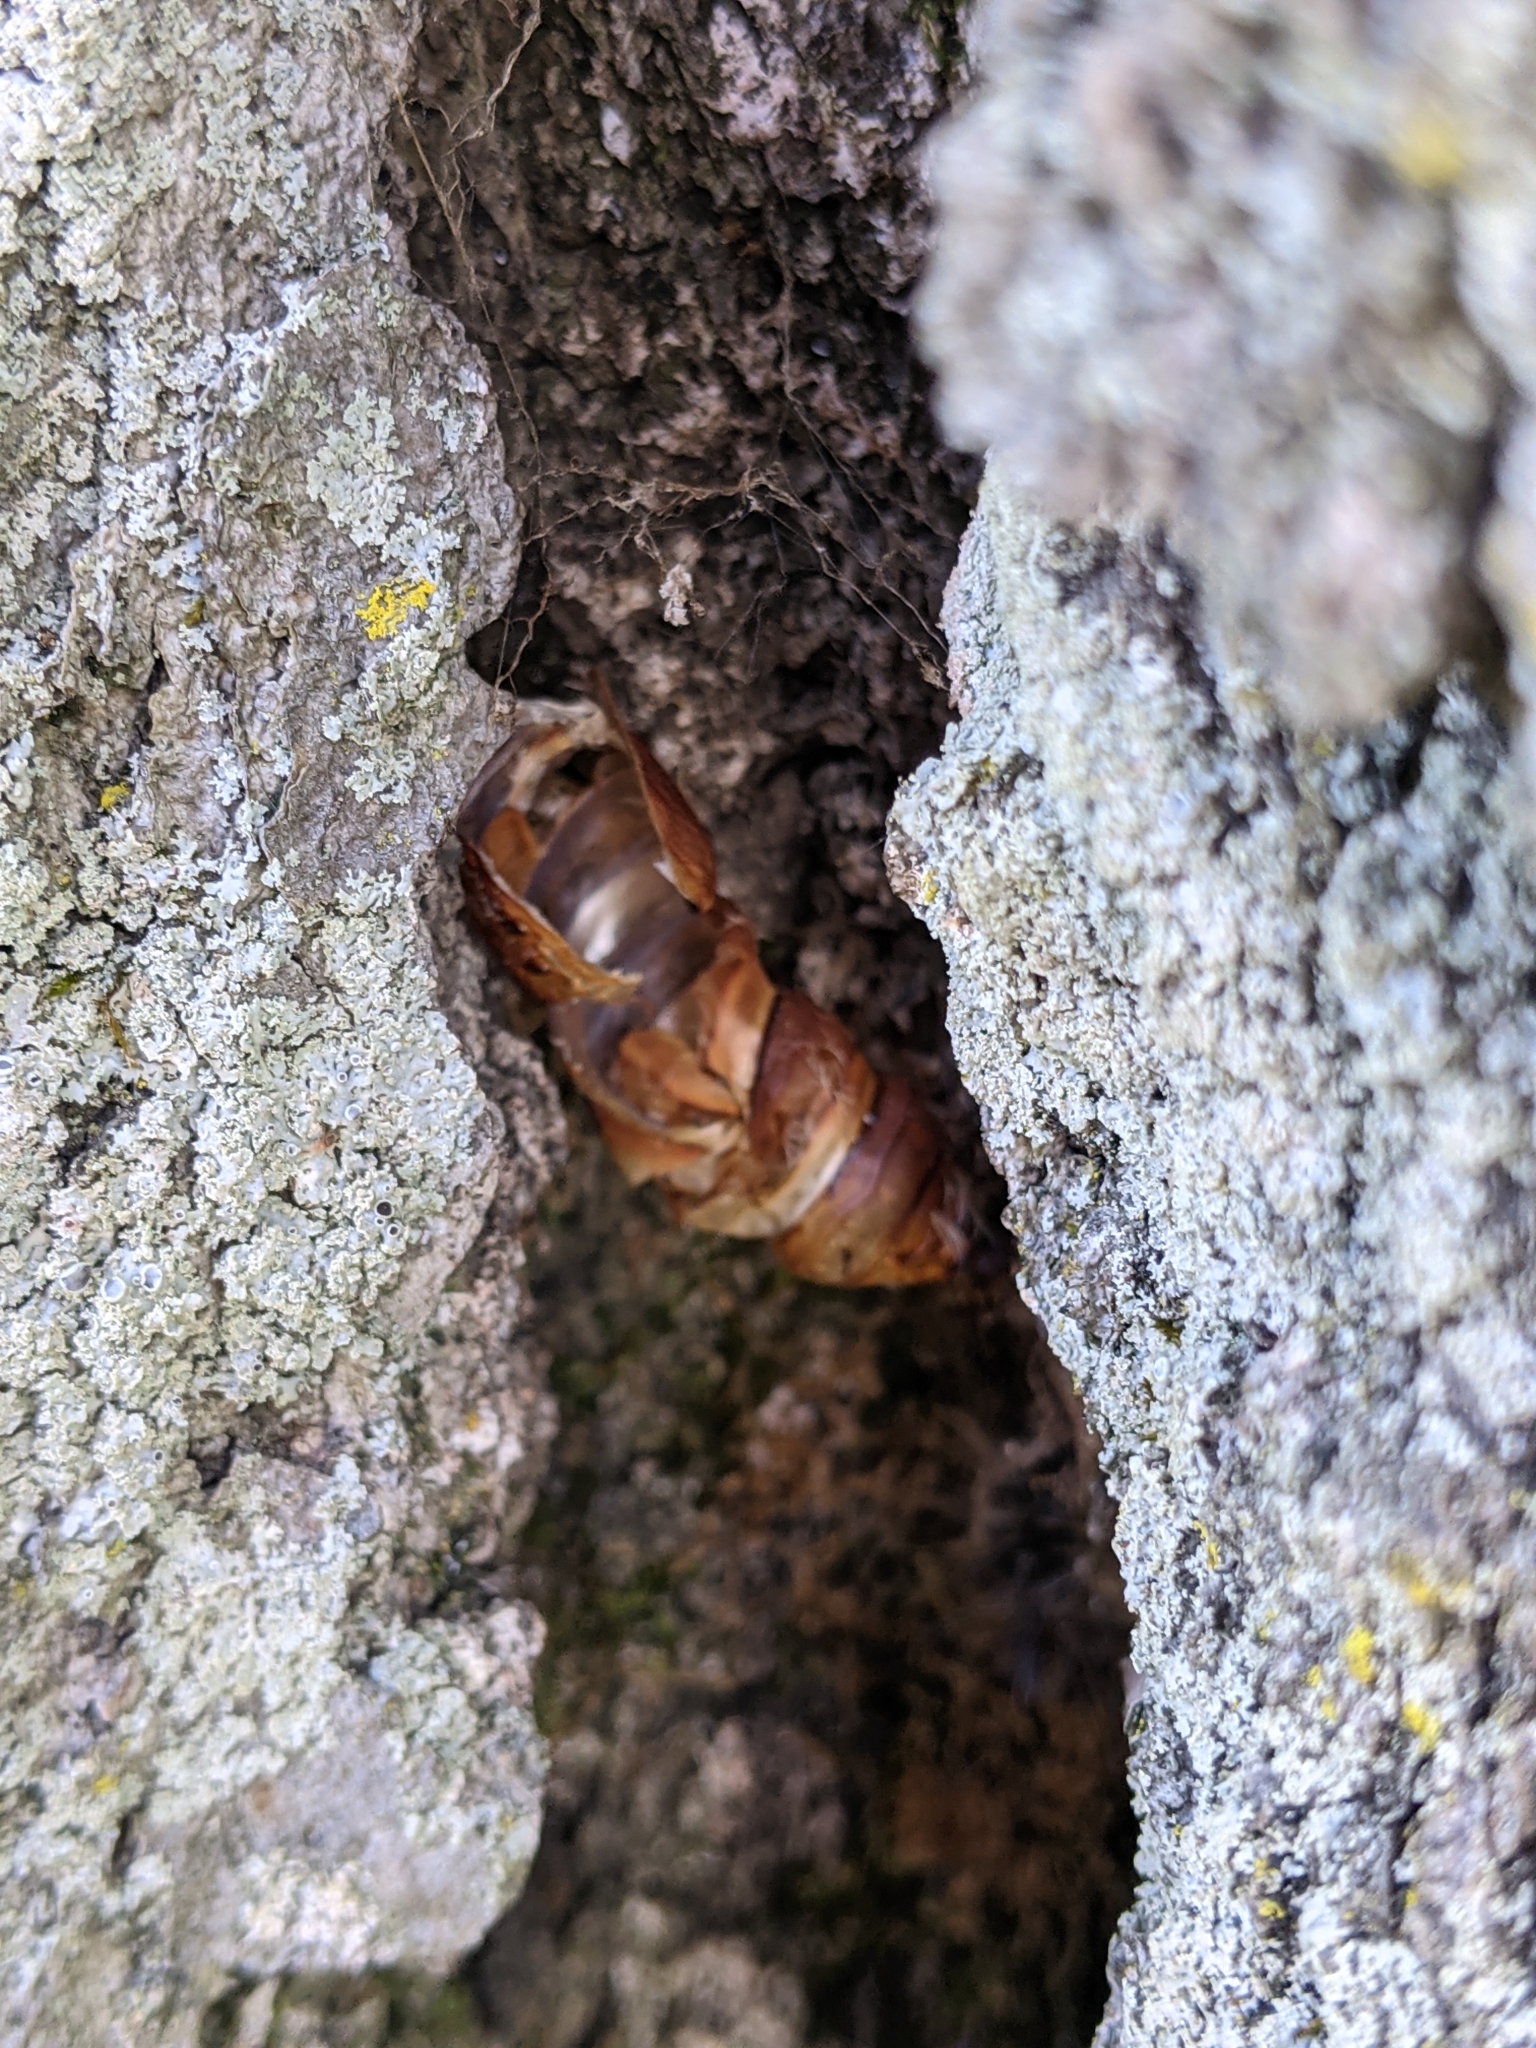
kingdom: Animalia
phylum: Arthropoda
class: Insecta
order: Lepidoptera
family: Erebidae
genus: Lymantria
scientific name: Lymantria dispar
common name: Gypsy moth
